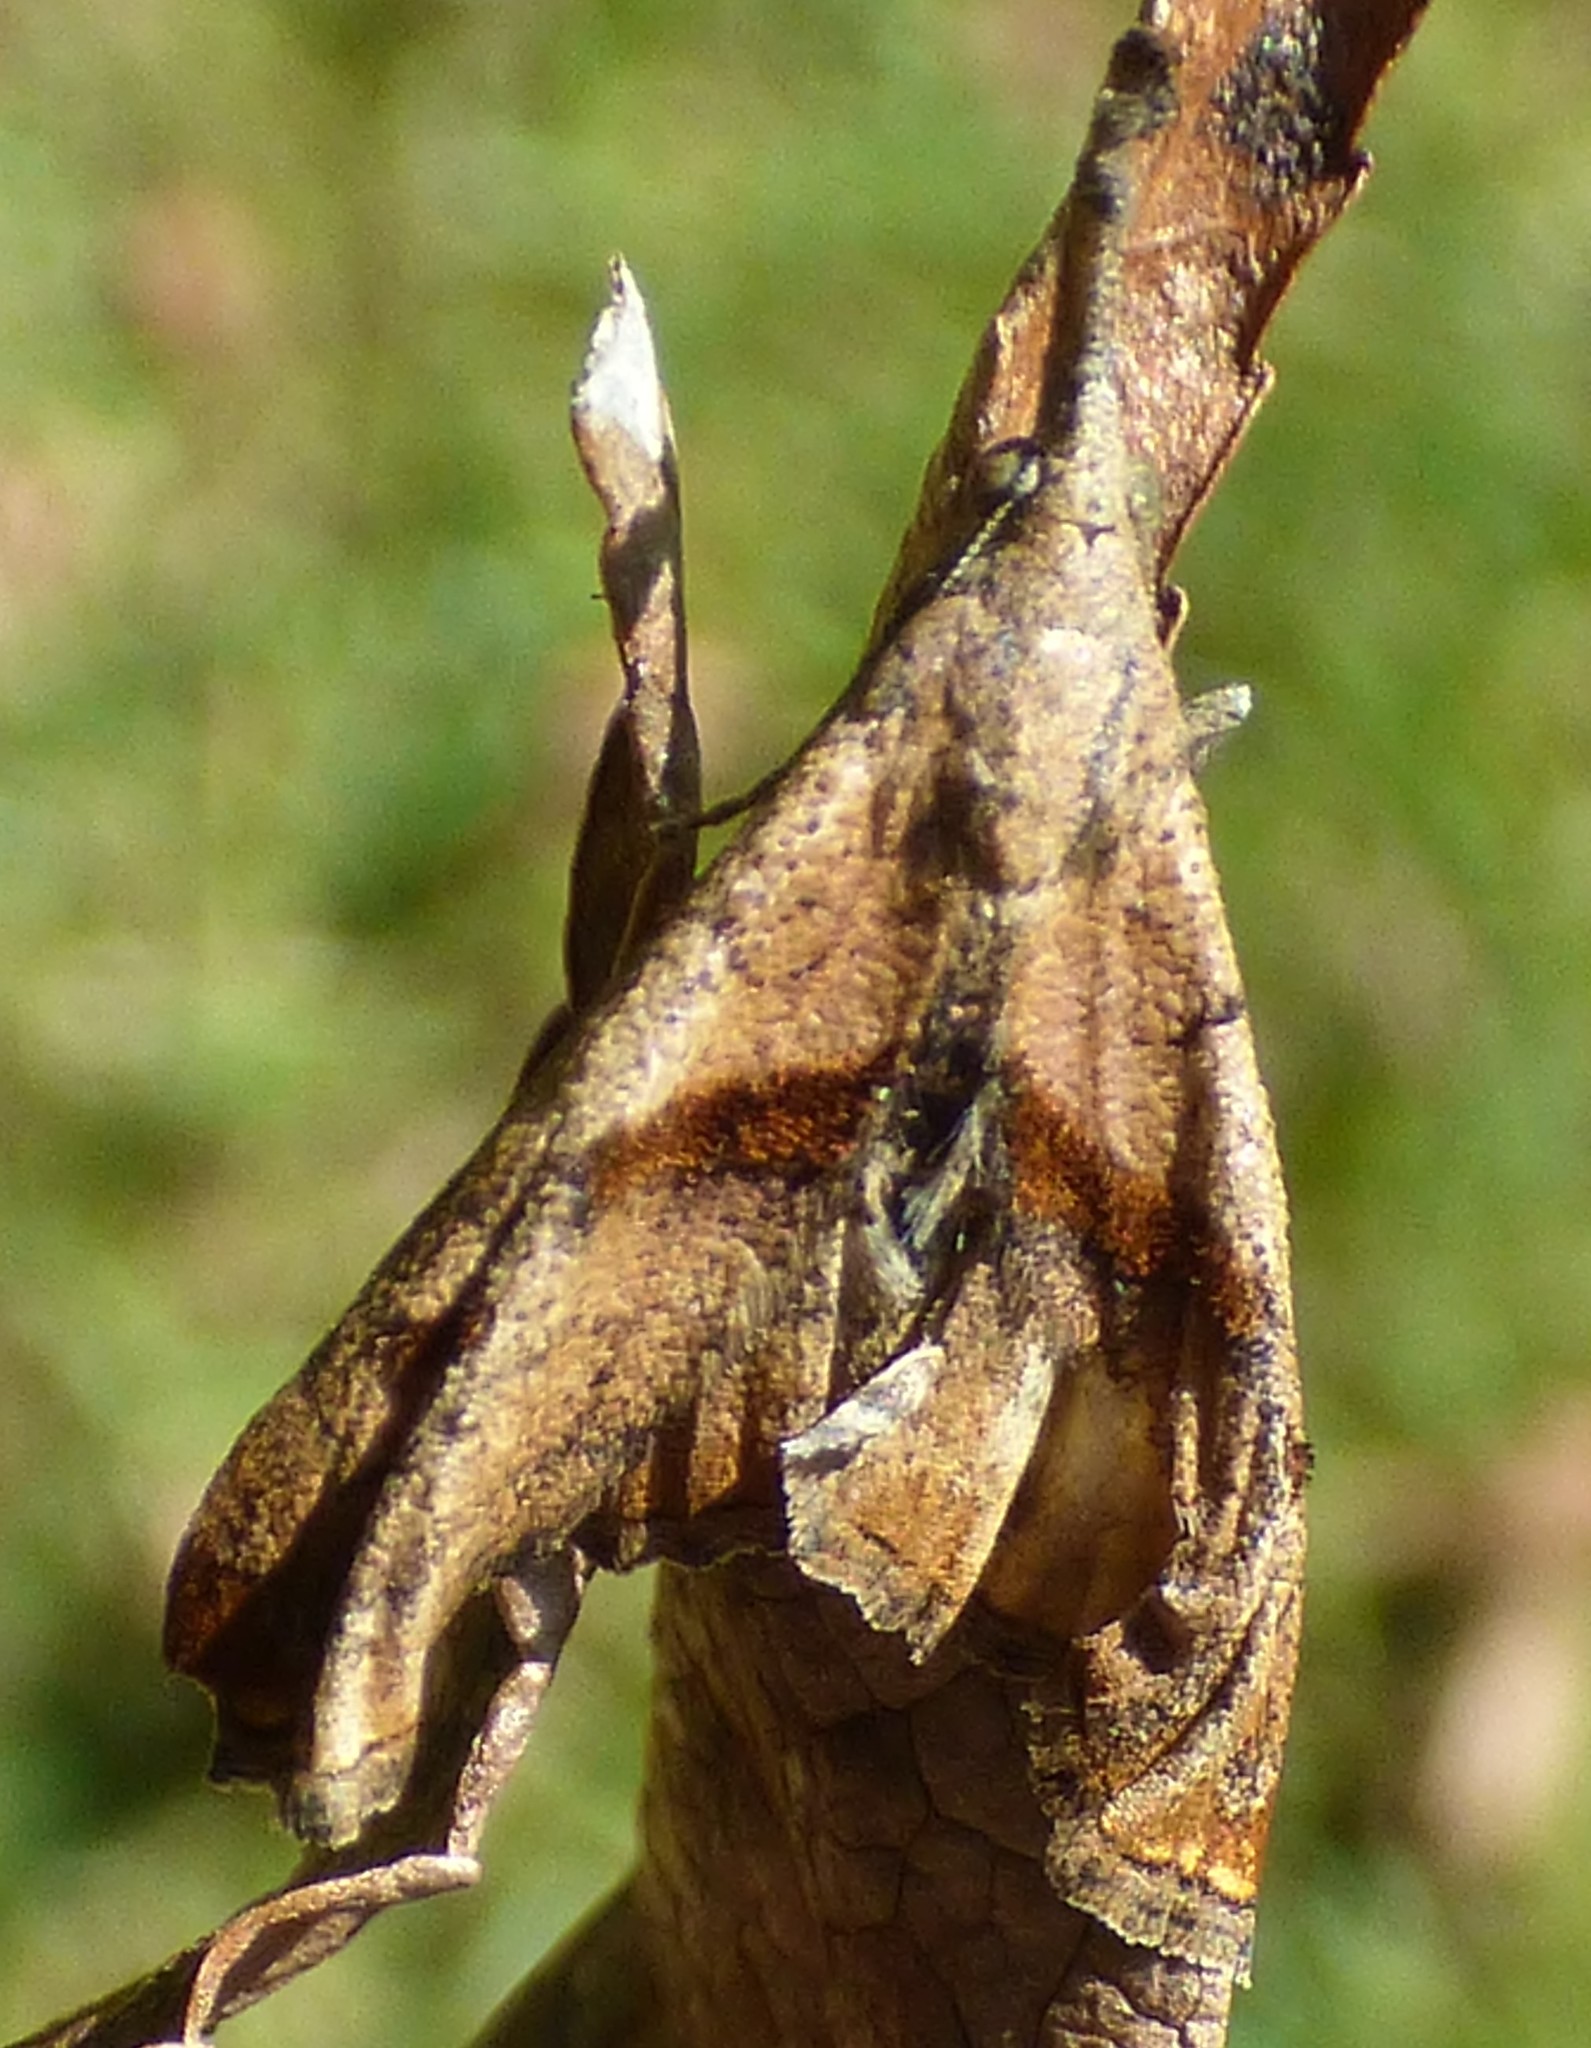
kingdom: Animalia
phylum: Arthropoda
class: Insecta
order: Lepidoptera
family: Erebidae
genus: Palthis
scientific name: Palthis angulalis
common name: Dark-spotted palthis moth
